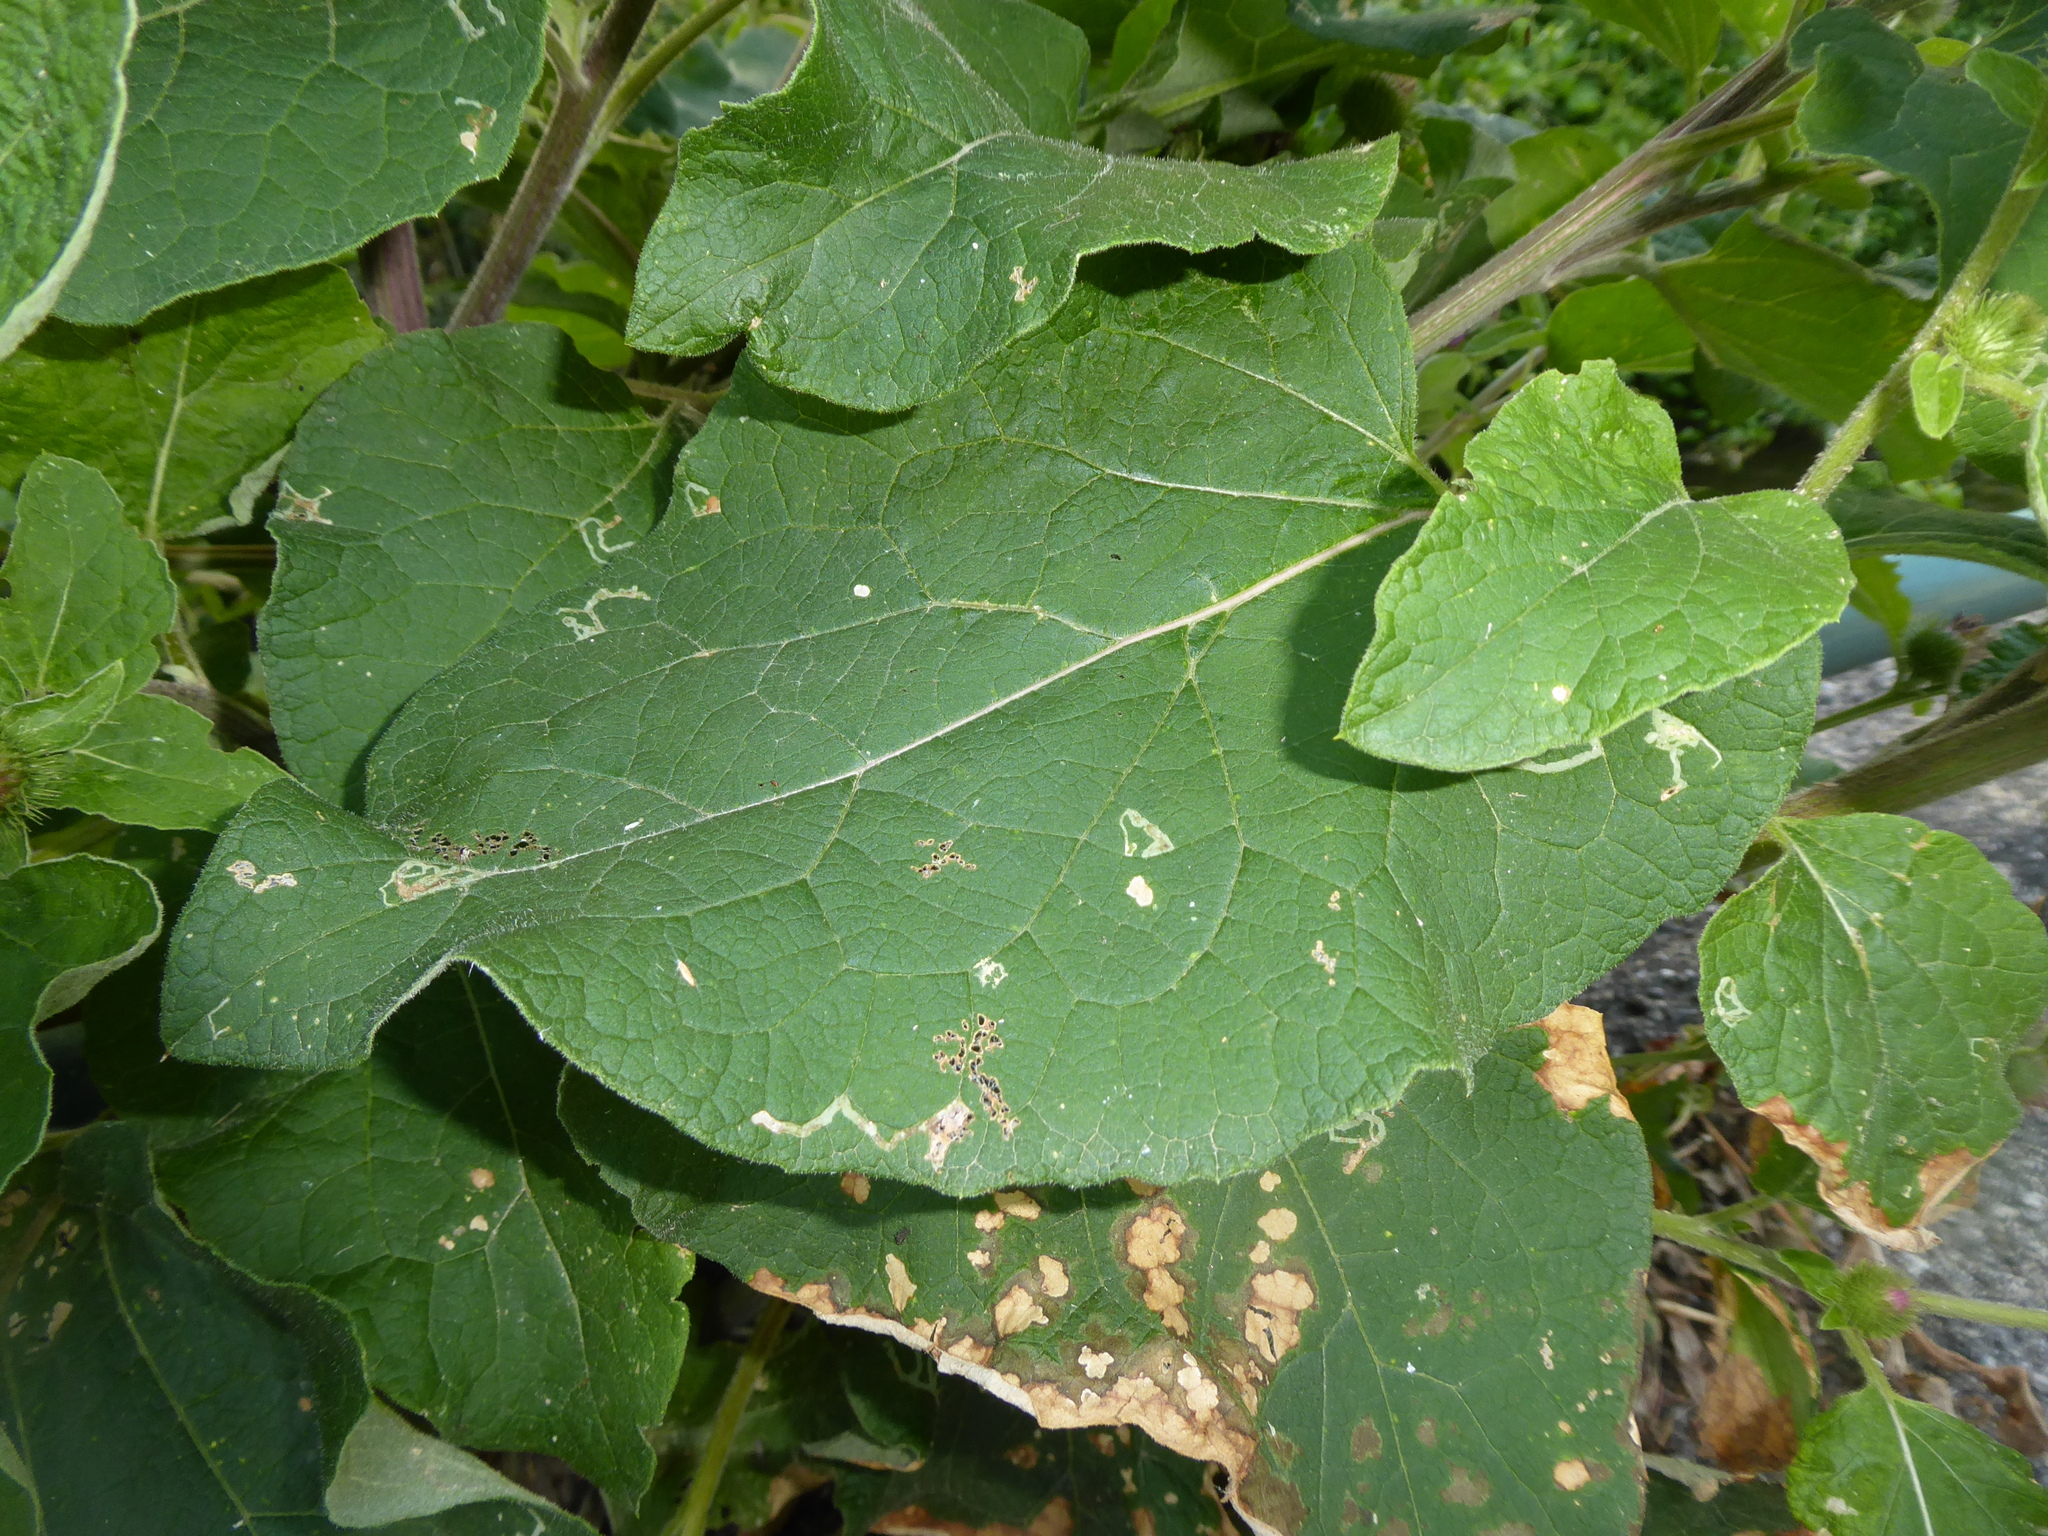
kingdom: Plantae
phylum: Tracheophyta
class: Magnoliopsida
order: Asterales
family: Asteraceae
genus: Arctium
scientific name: Arctium lappa
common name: Greater burdock
